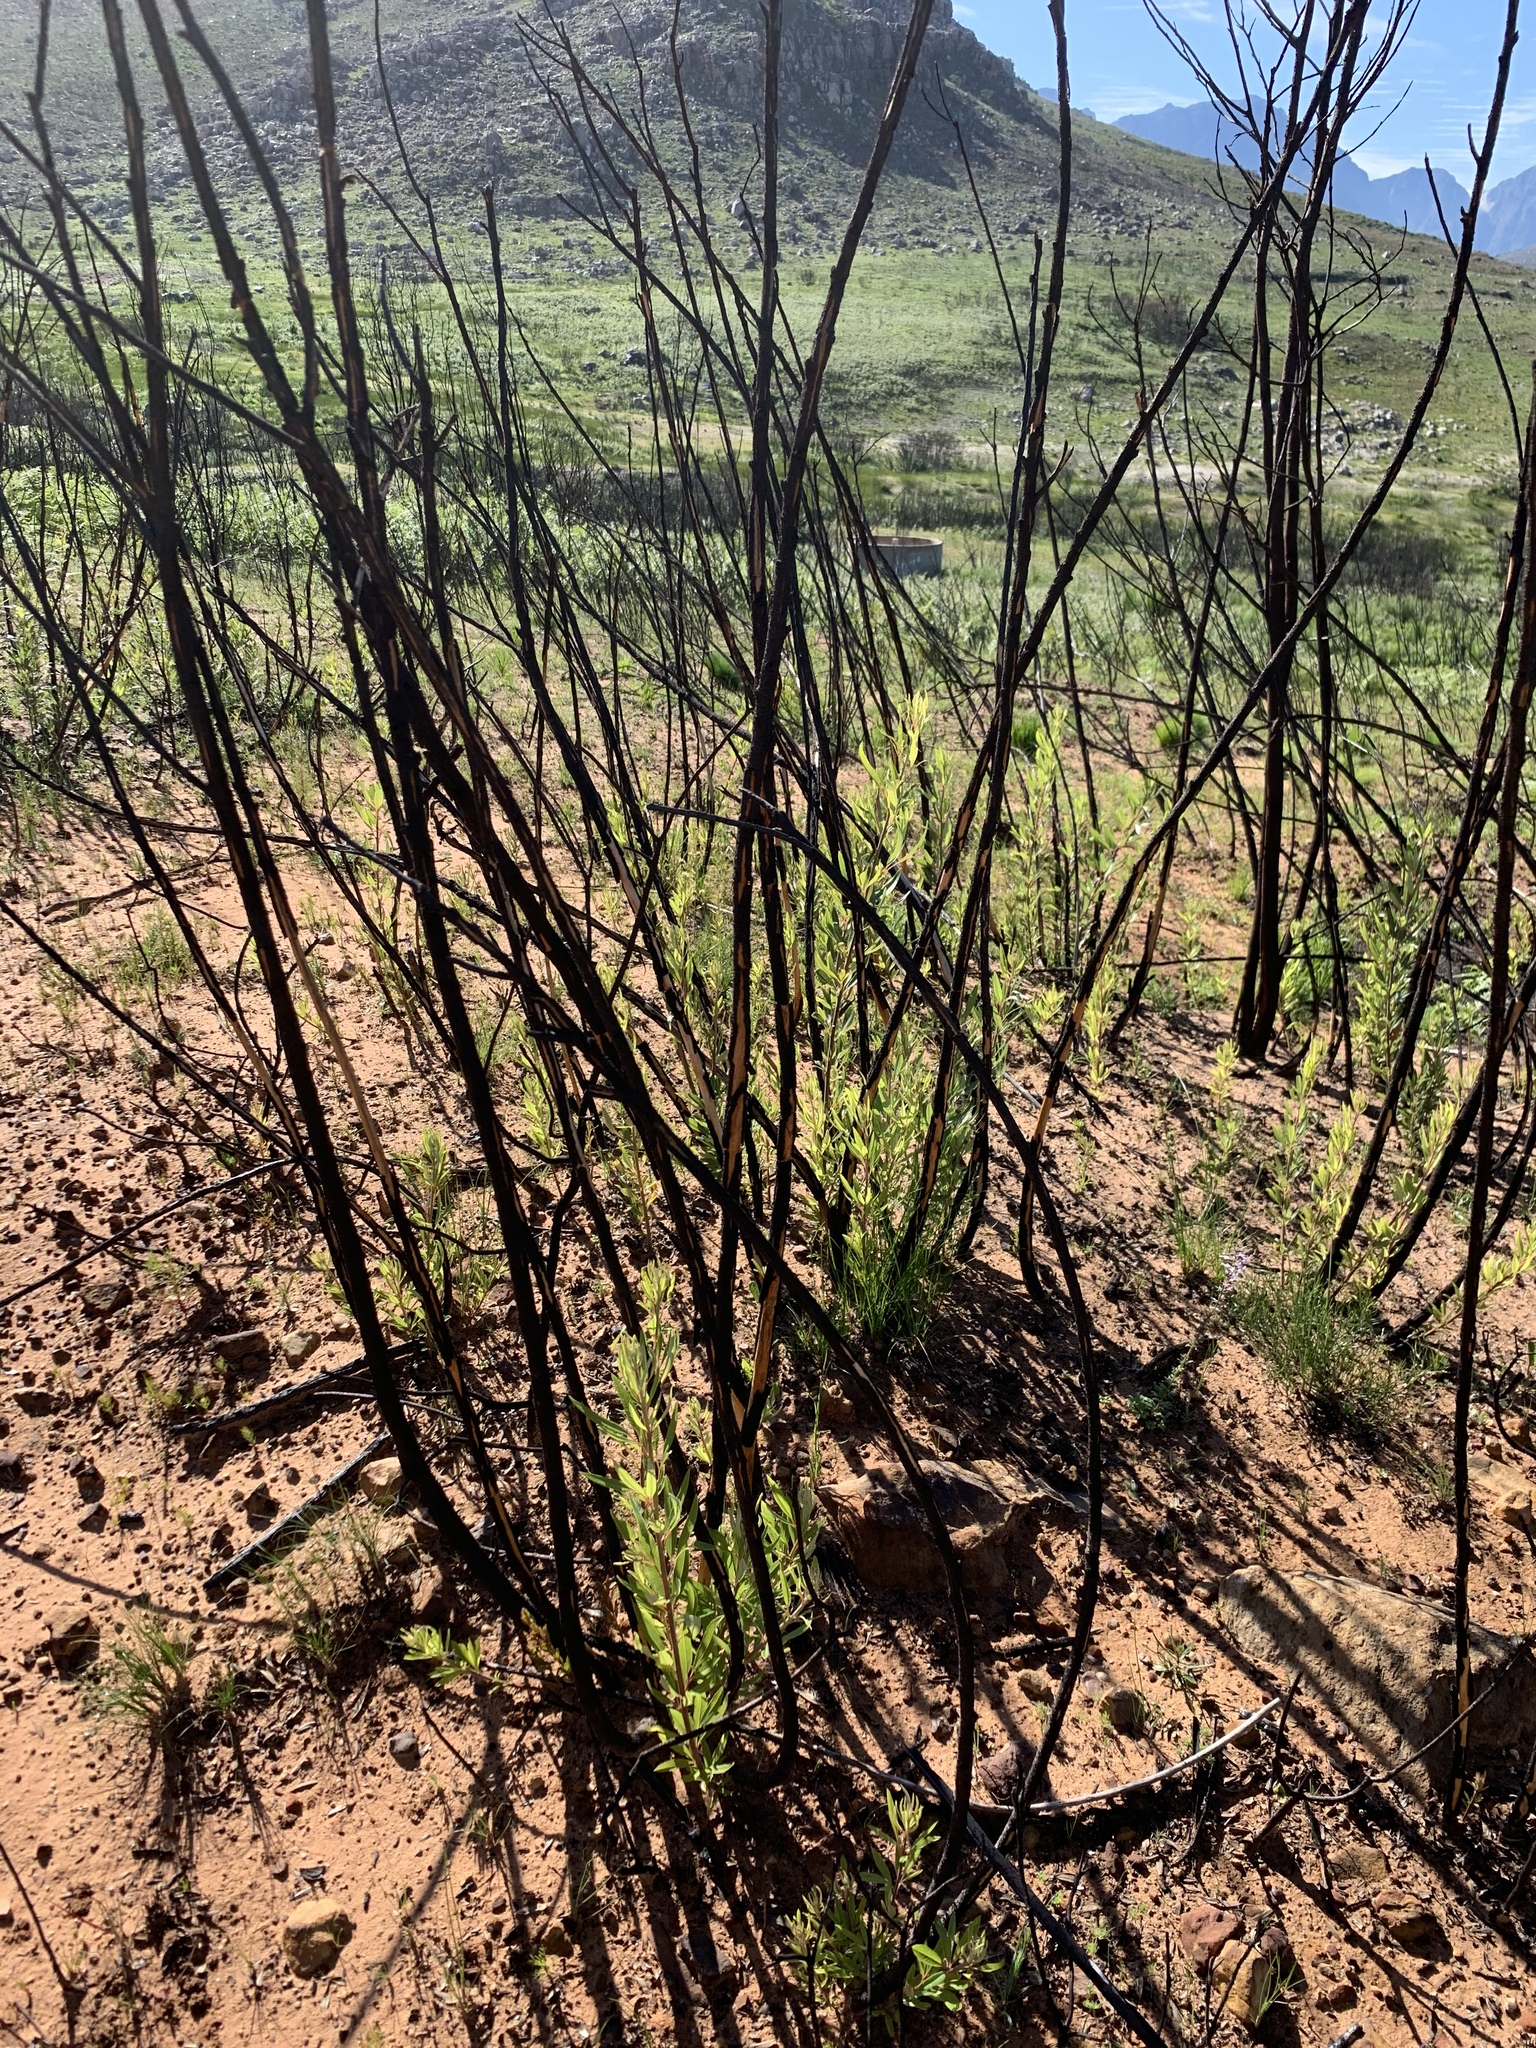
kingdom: Plantae
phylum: Tracheophyta
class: Magnoliopsida
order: Sapindales
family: Anacardiaceae
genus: Searsia
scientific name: Searsia angustifolia
